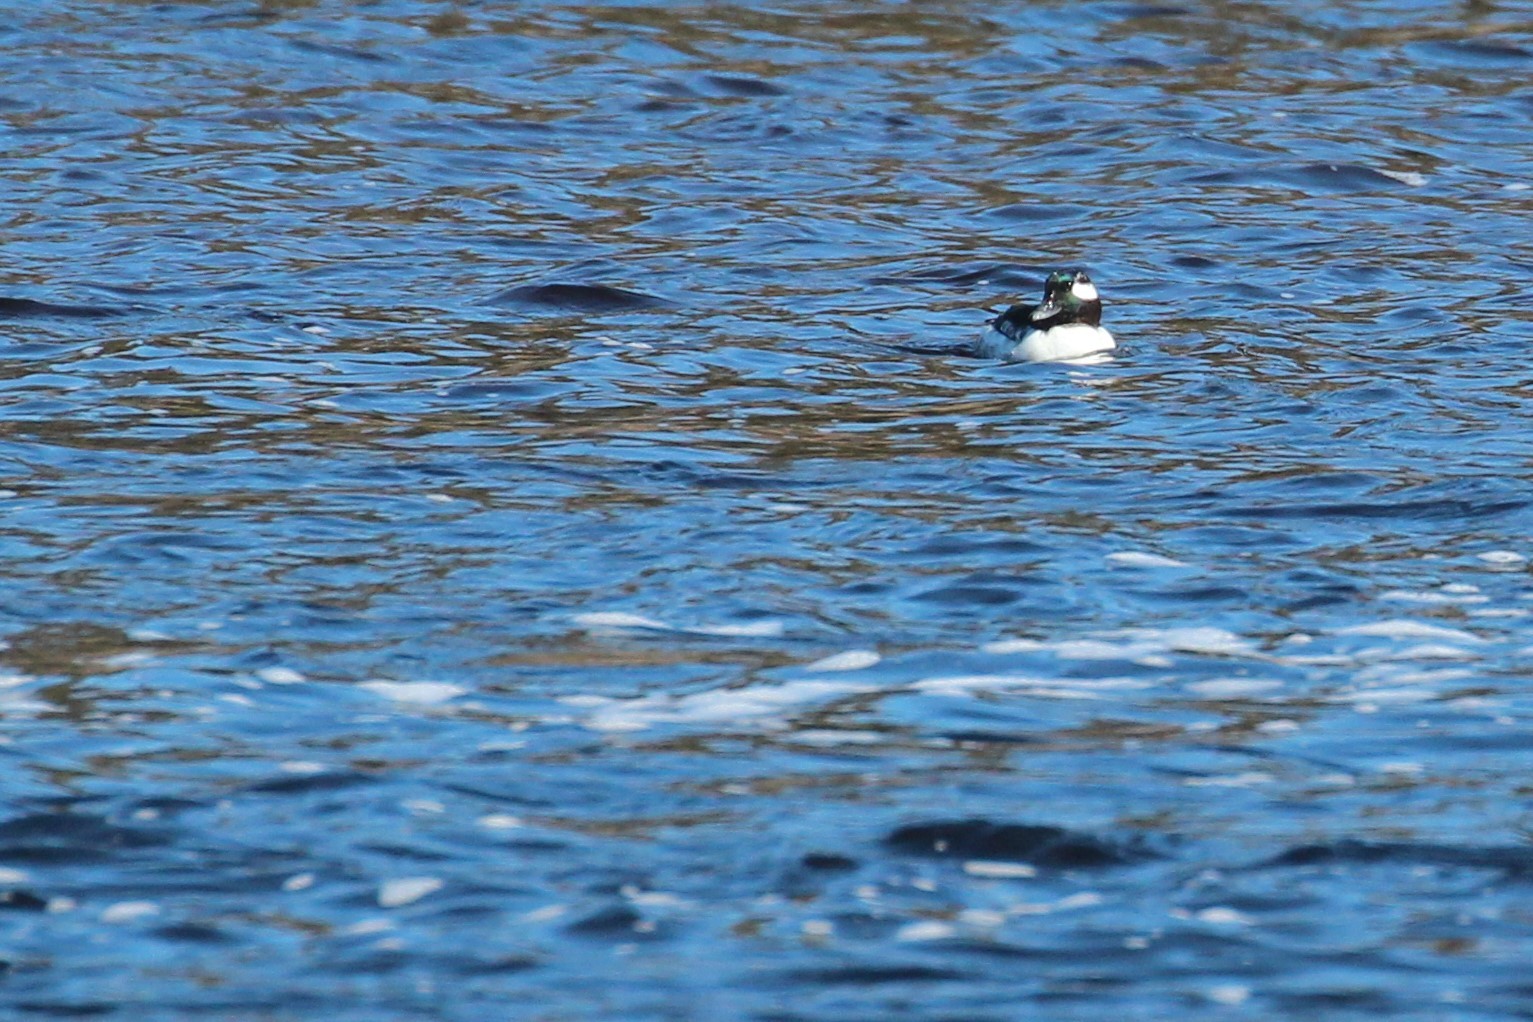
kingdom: Animalia
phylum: Chordata
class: Aves
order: Anseriformes
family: Anatidae
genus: Bucephala
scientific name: Bucephala albeola
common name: Bufflehead
